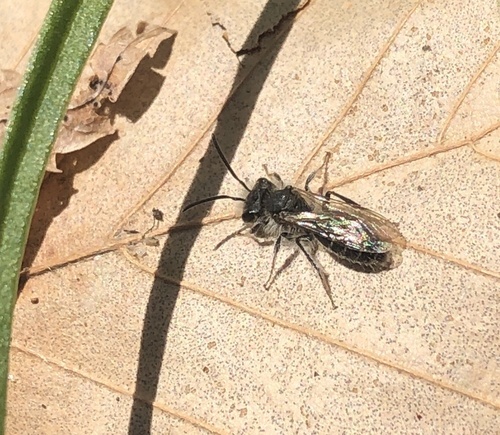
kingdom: Animalia
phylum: Arthropoda
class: Insecta
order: Hymenoptera
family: Andrenidae
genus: Andrena
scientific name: Andrena erigeniae
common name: Spring beauty miner
